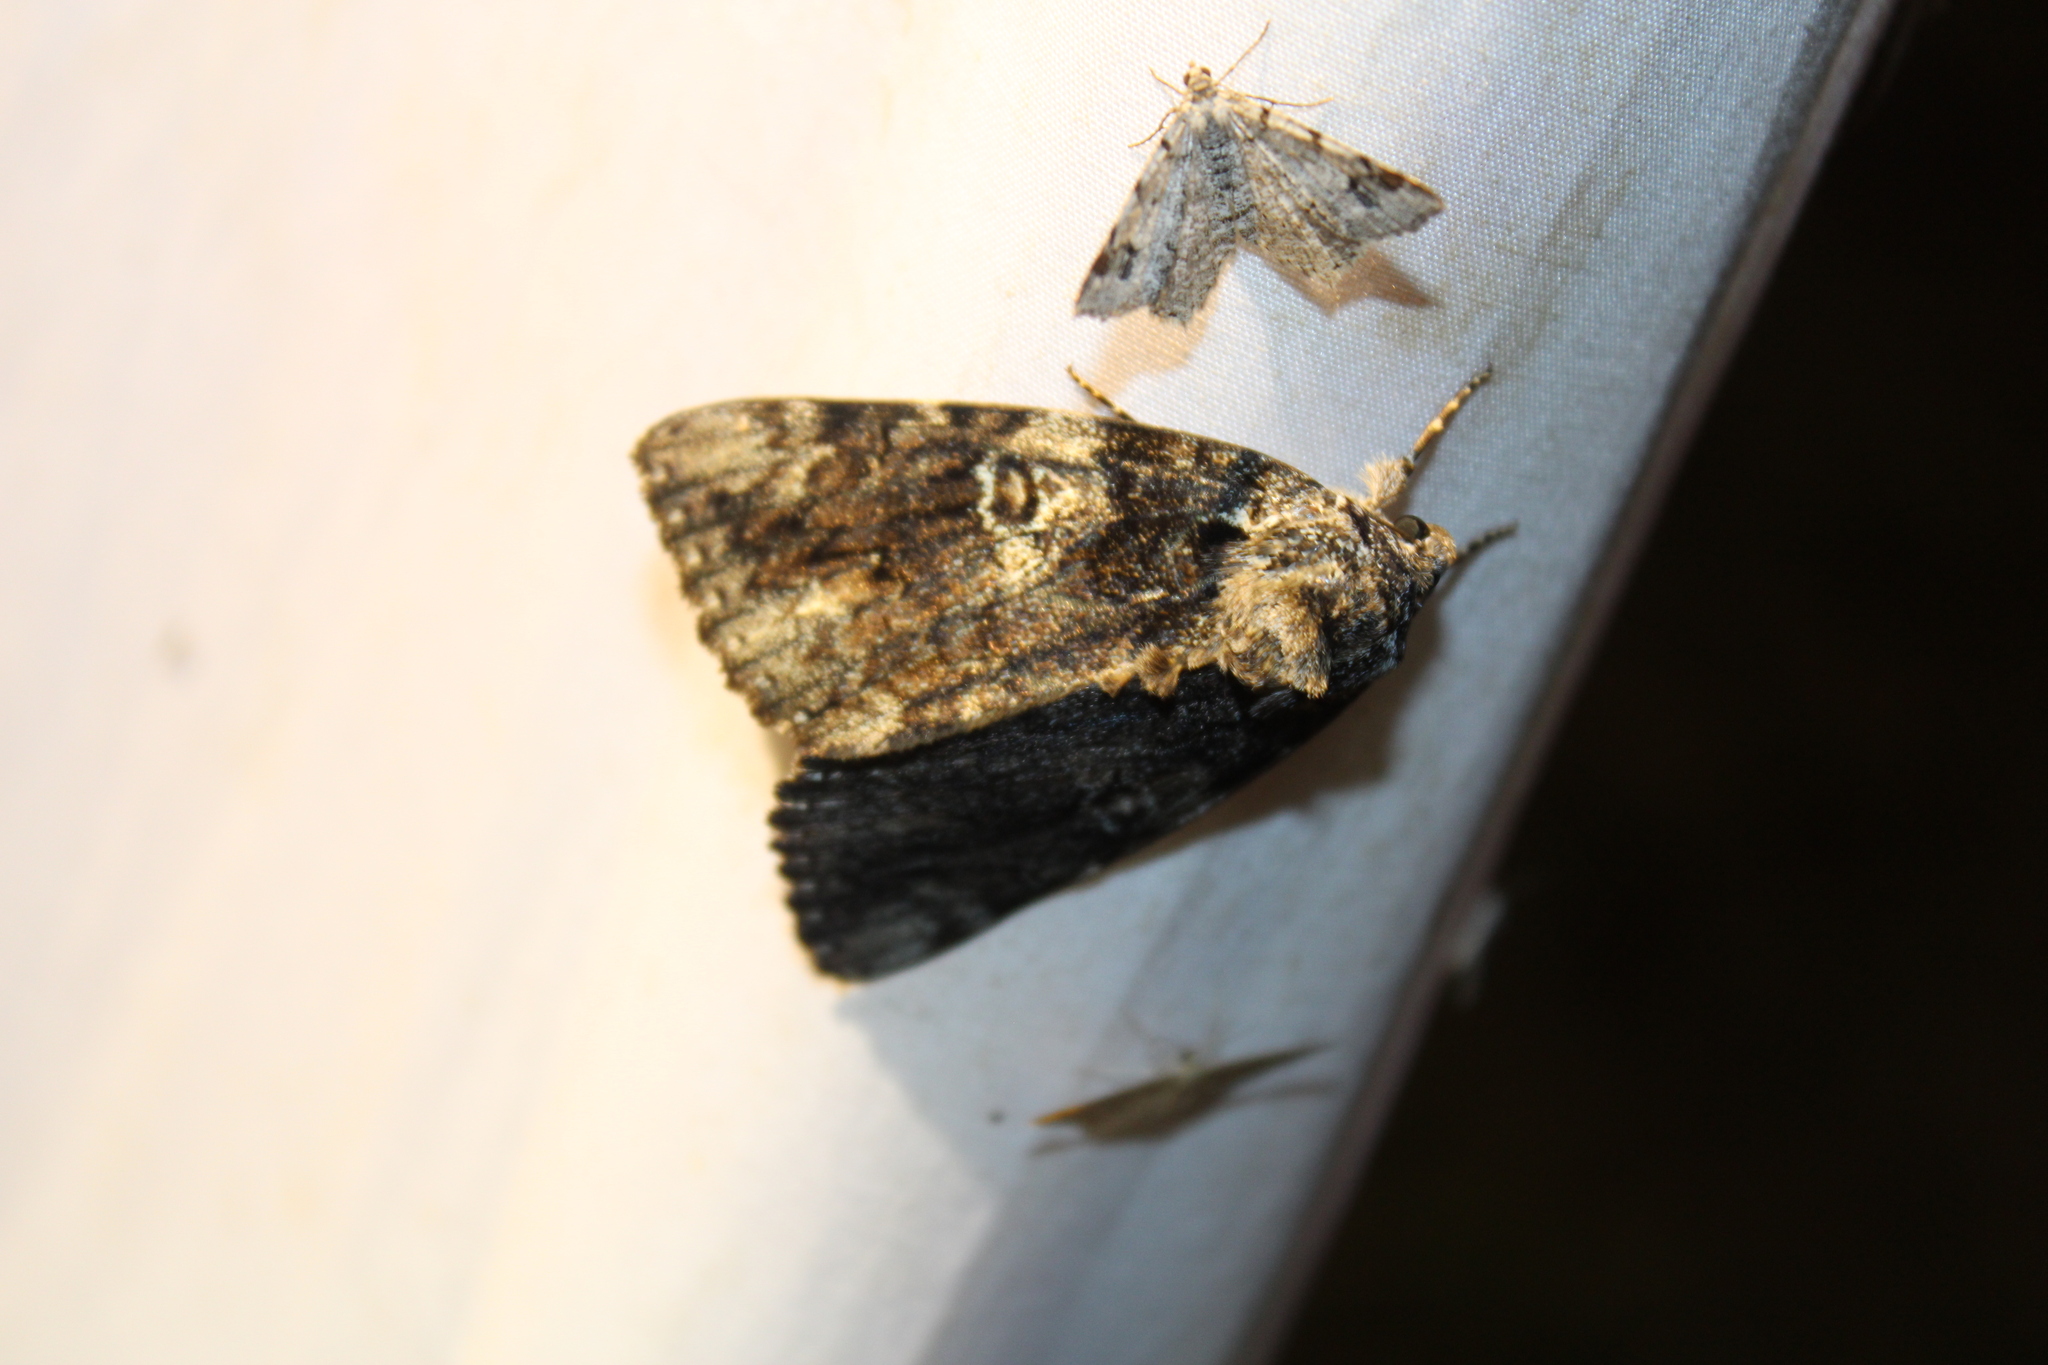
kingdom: Animalia
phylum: Arthropoda
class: Insecta
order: Lepidoptera
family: Erebidae
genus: Catocala
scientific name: Catocala ilia
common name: Ilia underwing
